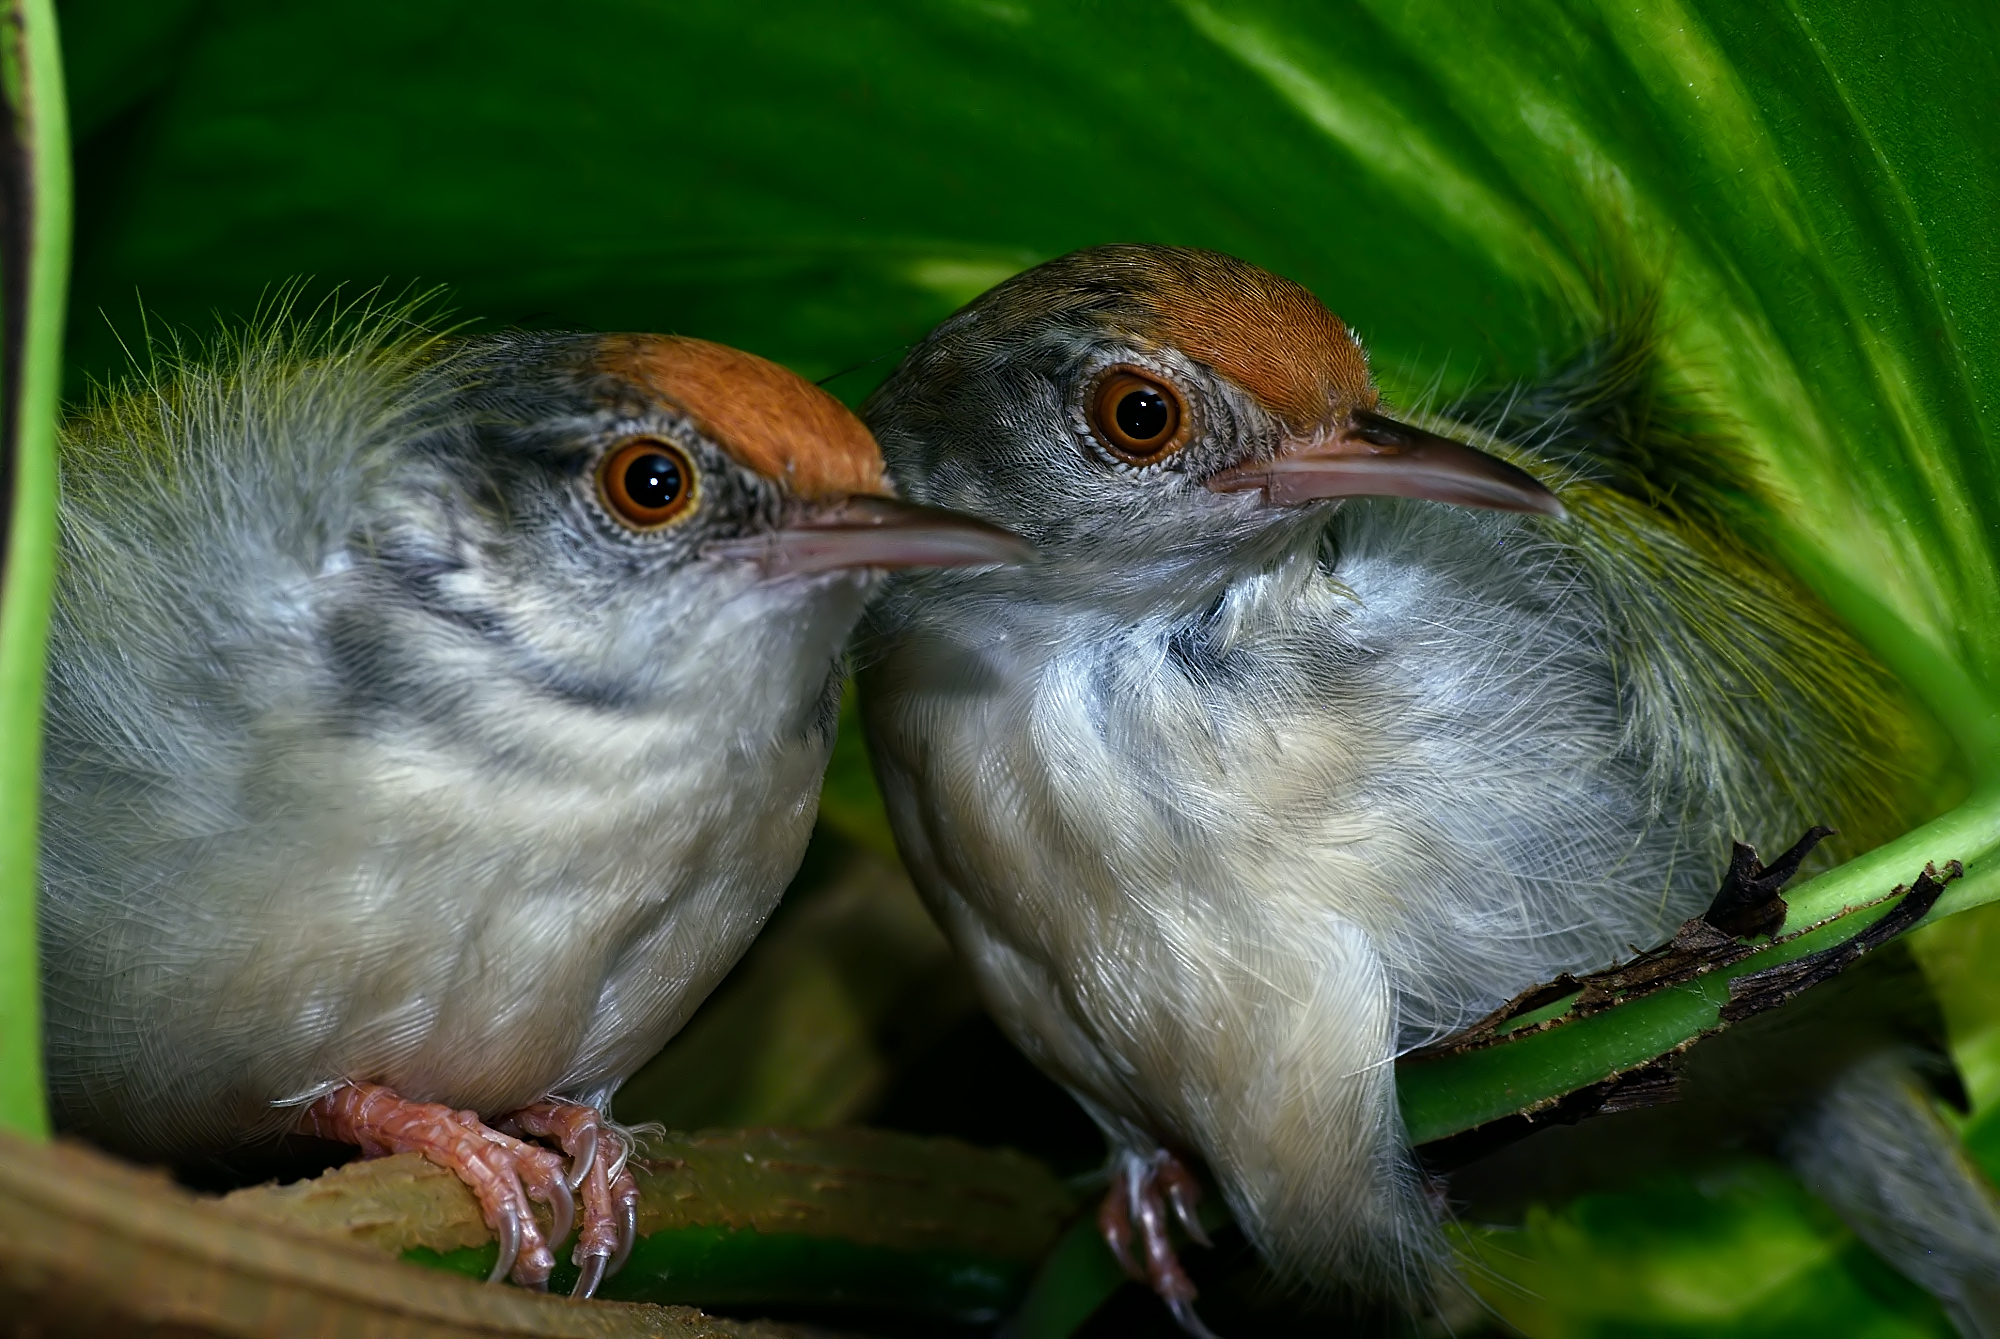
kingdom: Animalia
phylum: Chordata
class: Aves
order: Passeriformes
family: Cisticolidae
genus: Orthotomus
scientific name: Orthotomus sutorius
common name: Common tailorbird
